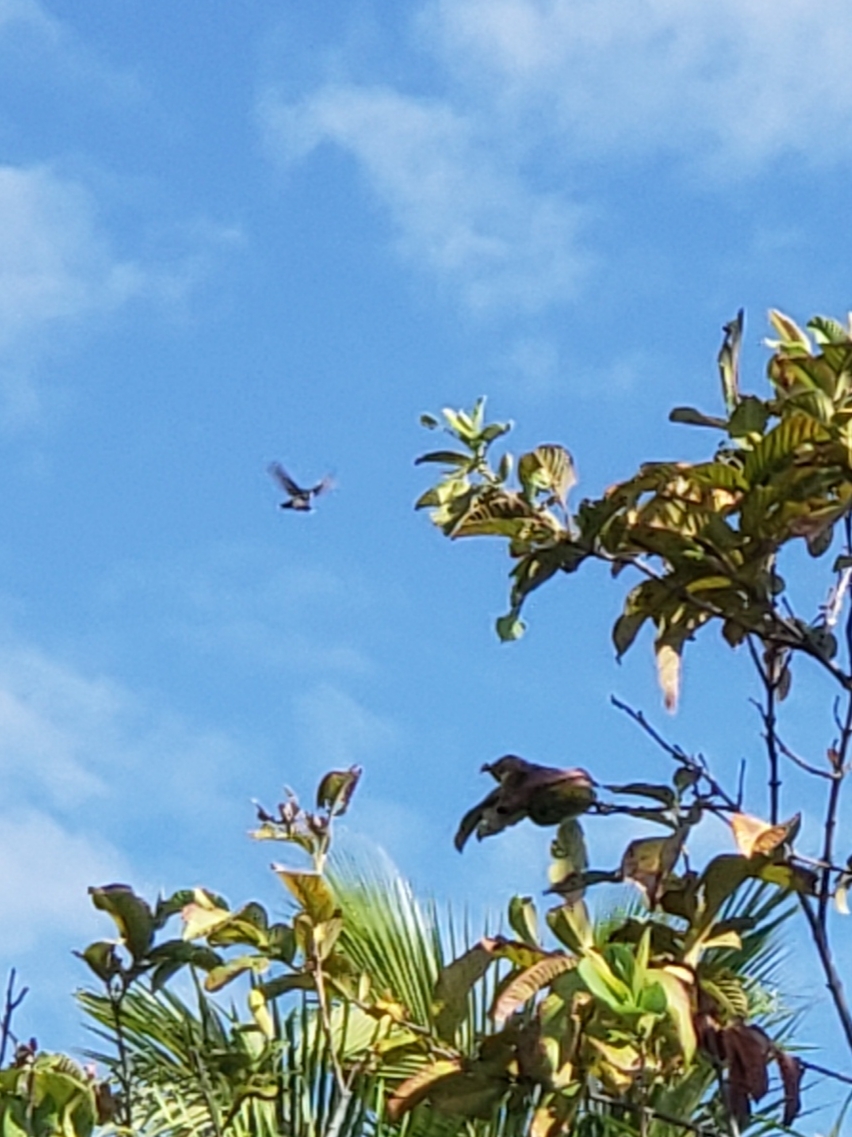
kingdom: Animalia
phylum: Chordata
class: Aves
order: Apodiformes
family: Trochilidae
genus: Archilochus
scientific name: Archilochus colubris
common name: Ruby-throated hummingbird
